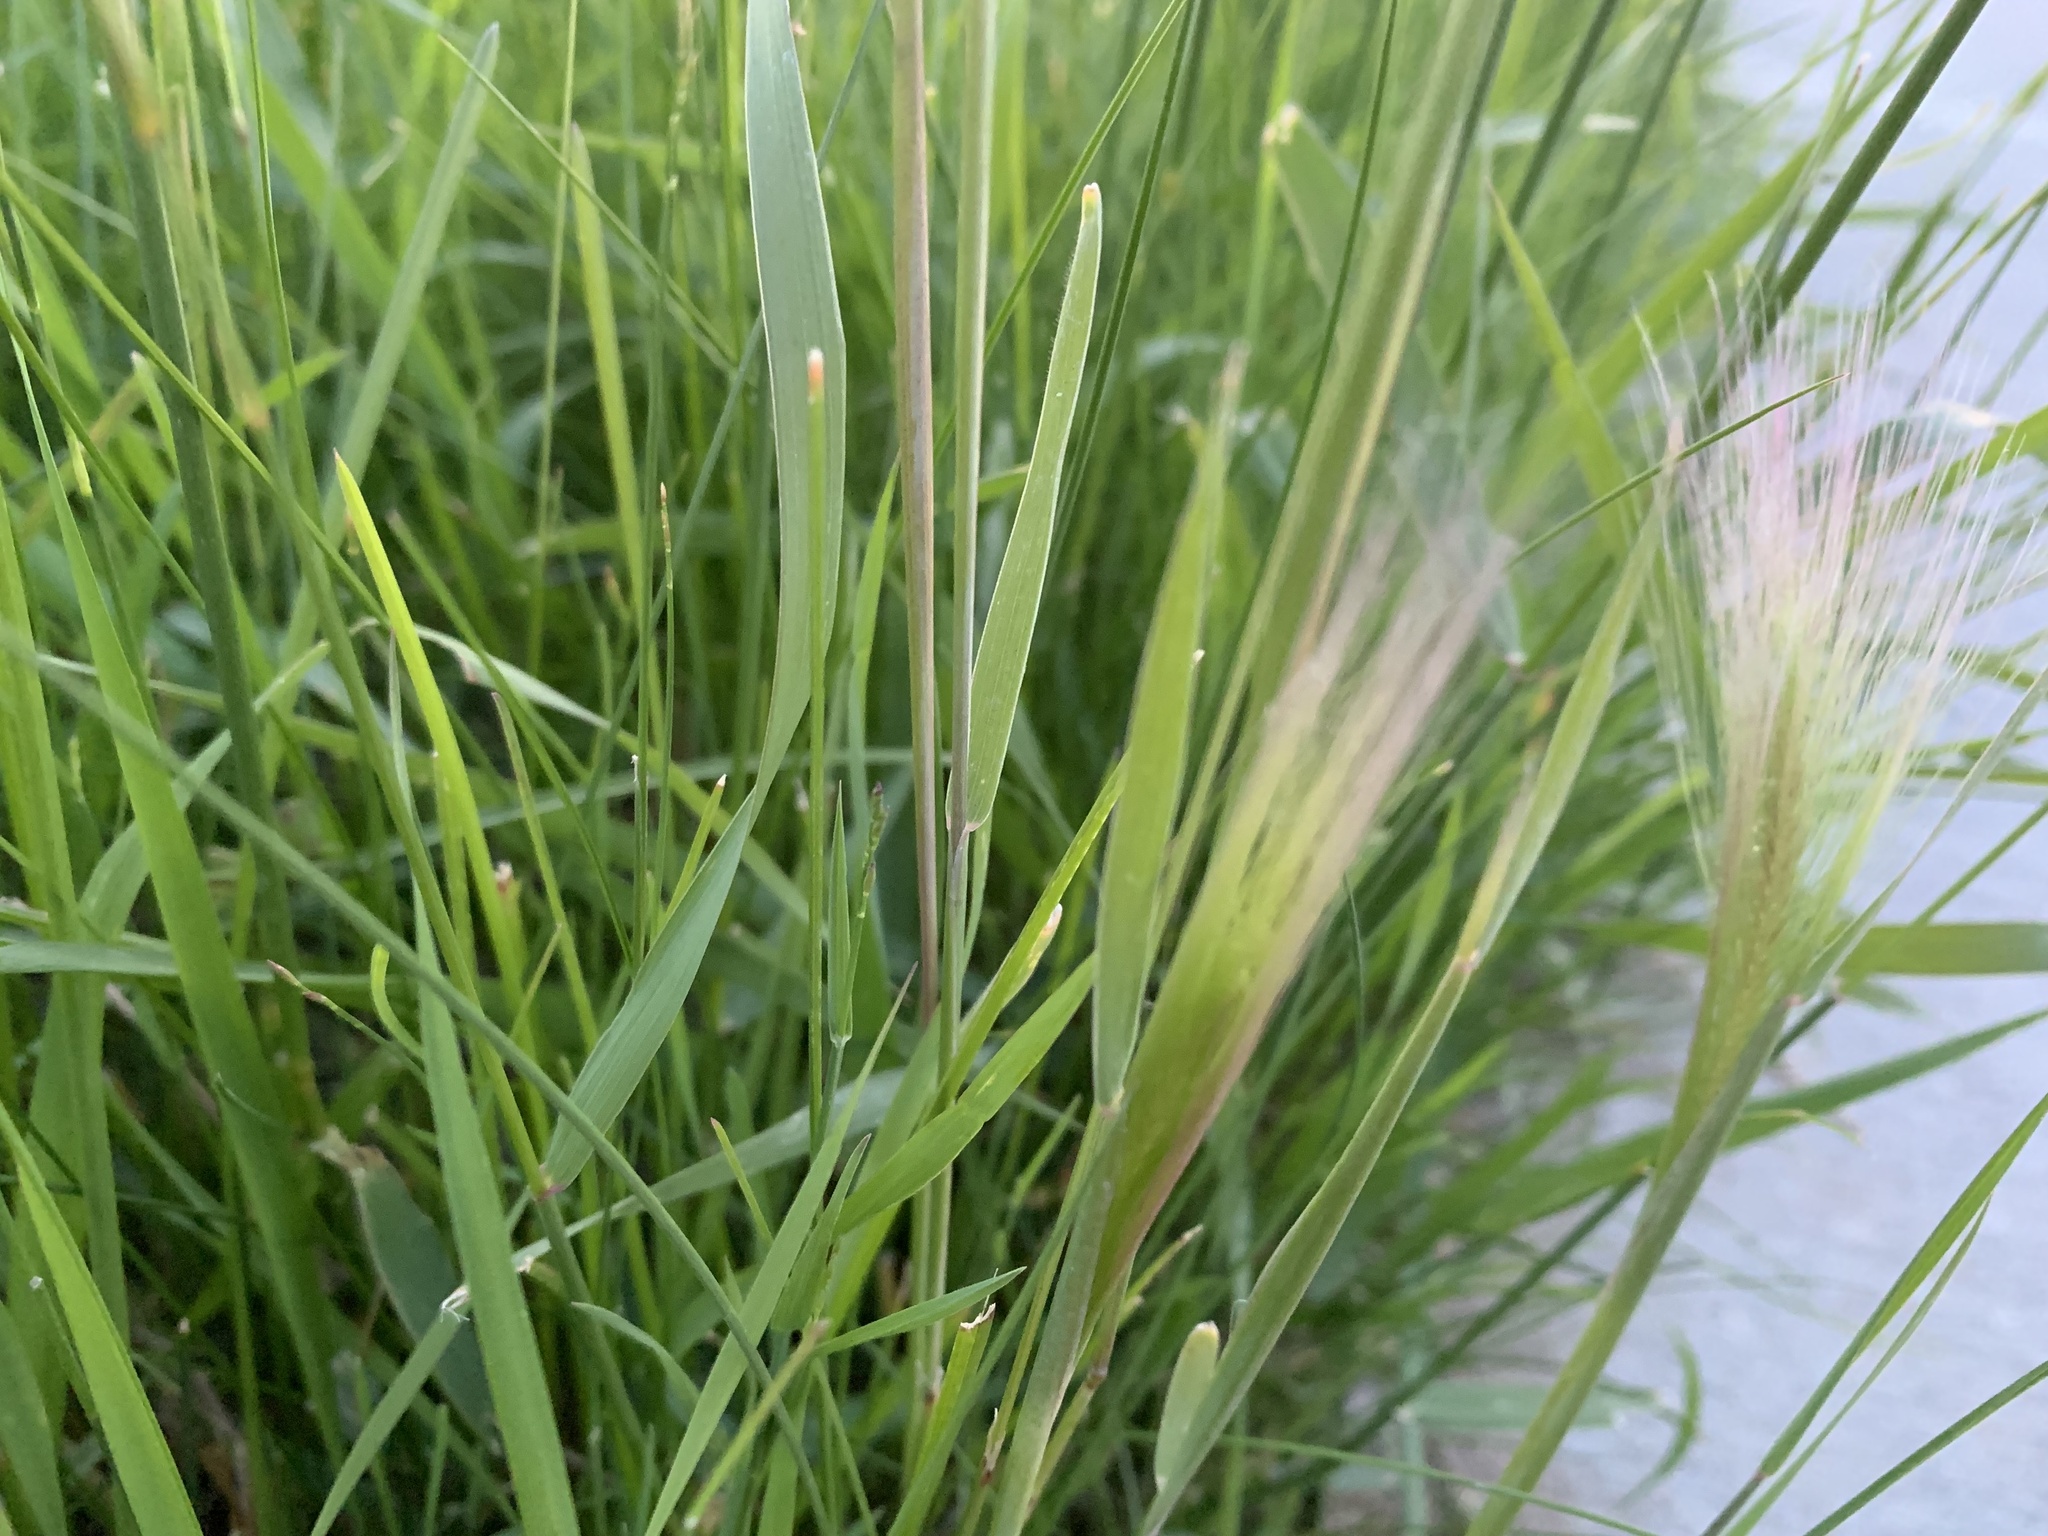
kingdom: Plantae
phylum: Tracheophyta
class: Liliopsida
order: Poales
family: Poaceae
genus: Hordeum
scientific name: Hordeum jubatum
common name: Foxtail barley
